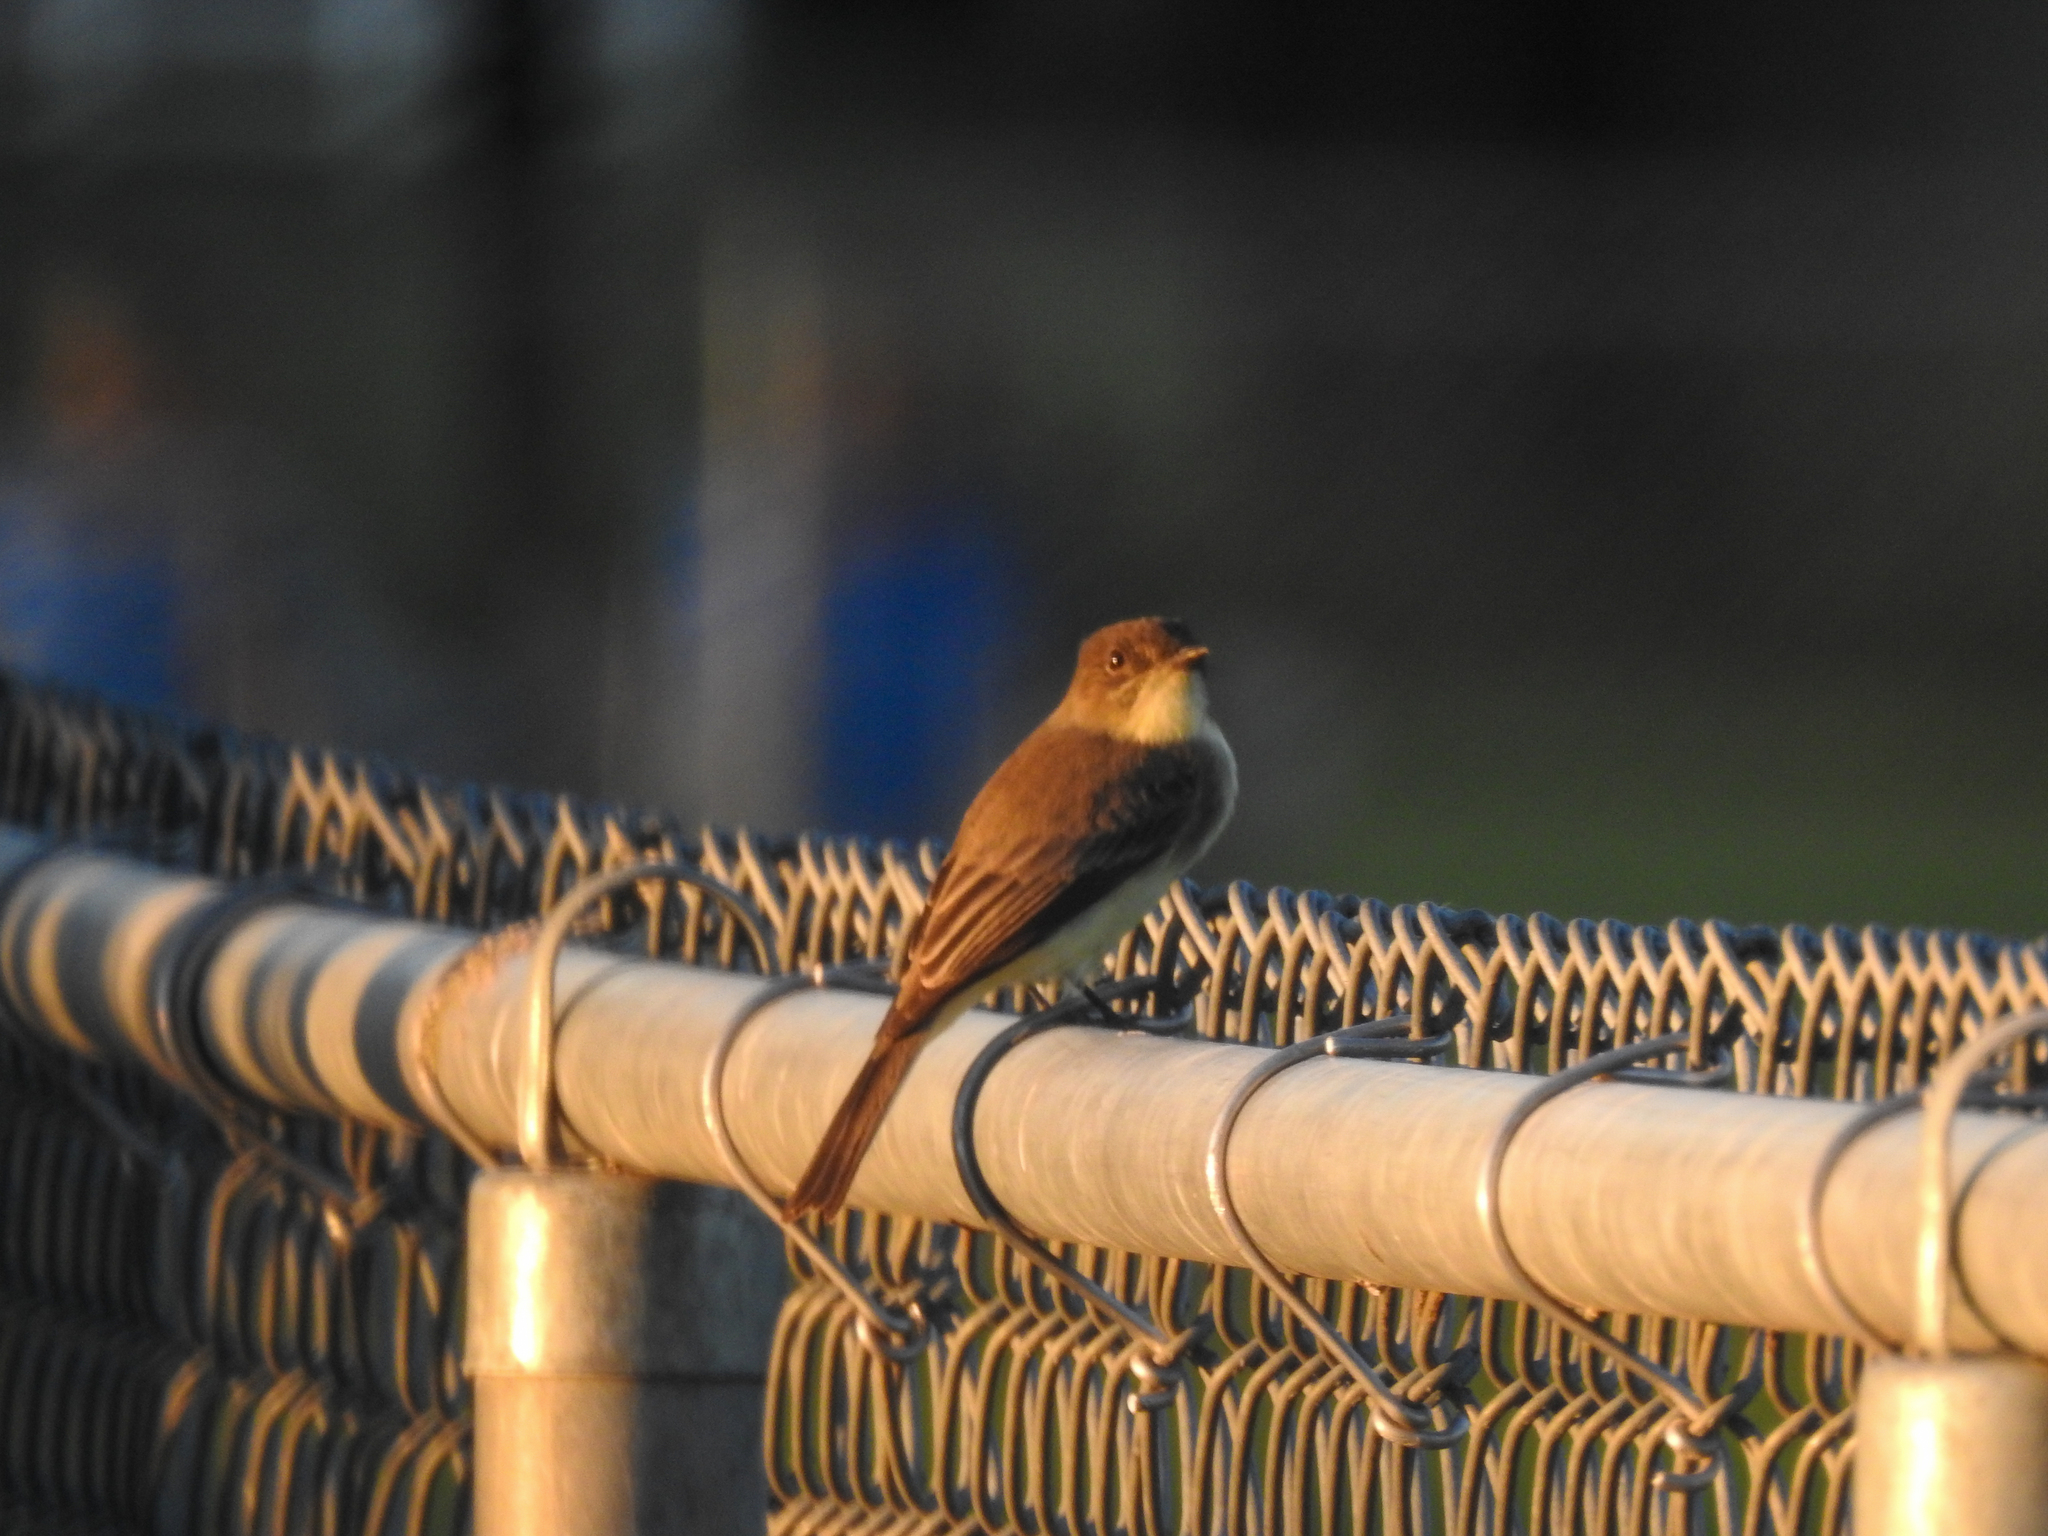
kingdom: Animalia
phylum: Chordata
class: Aves
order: Passeriformes
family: Tyrannidae
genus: Sayornis
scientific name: Sayornis phoebe
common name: Eastern phoebe
